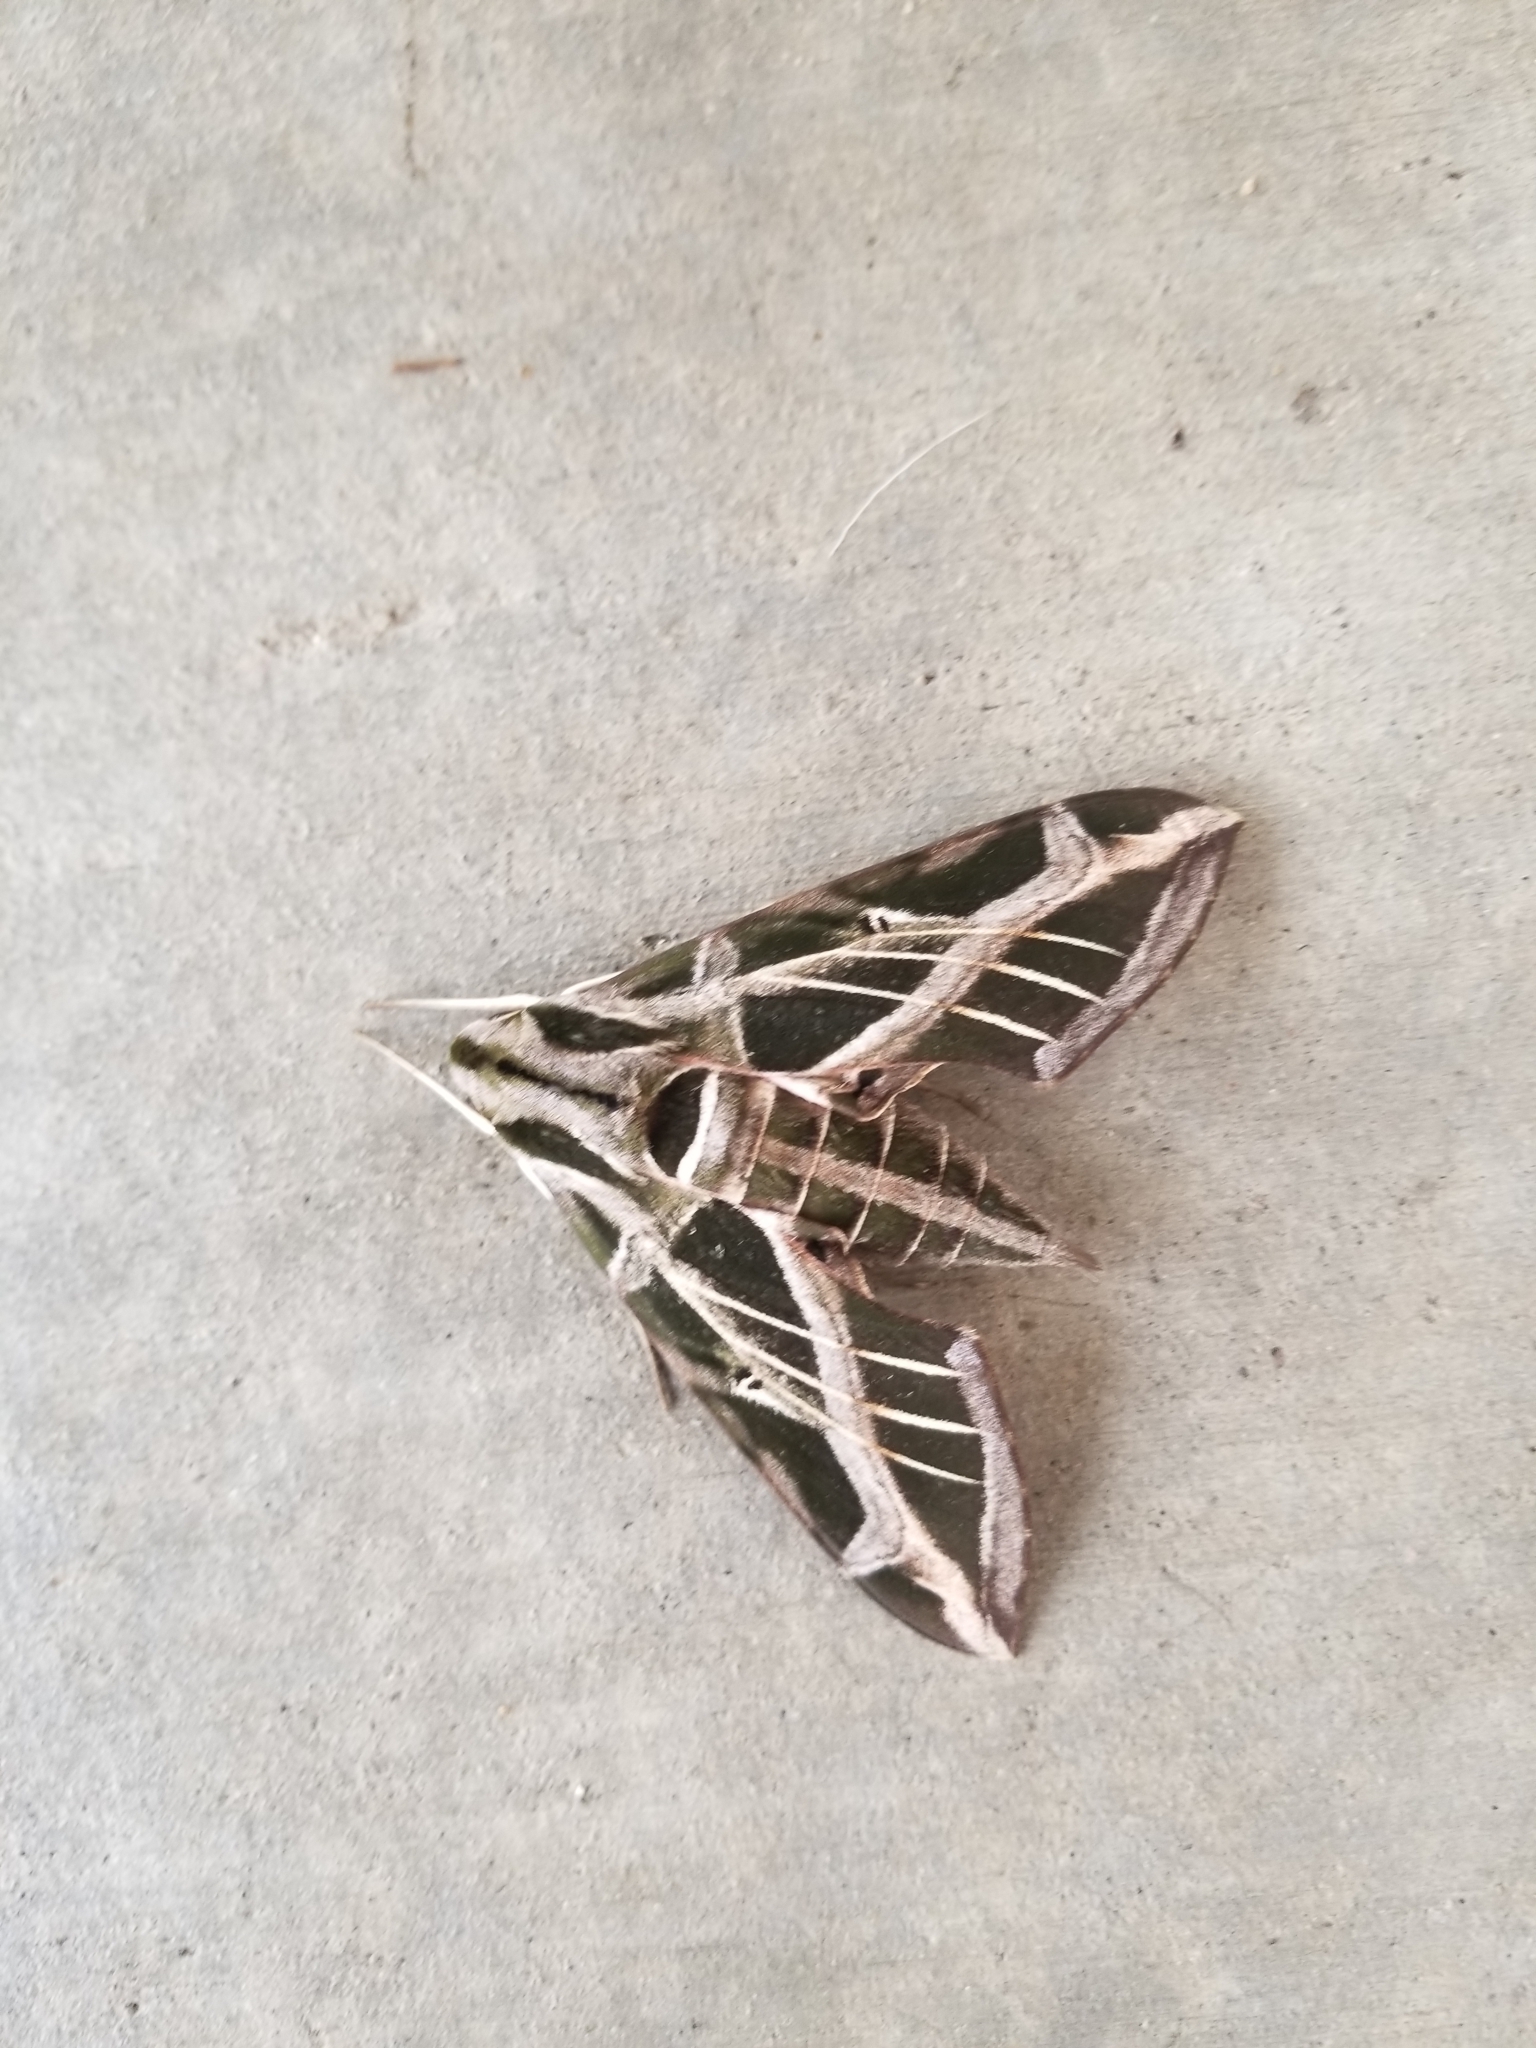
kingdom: Animalia
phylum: Arthropoda
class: Insecta
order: Lepidoptera
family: Sphingidae
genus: Eumorpha
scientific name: Eumorpha vitis
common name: Vine sphinx
